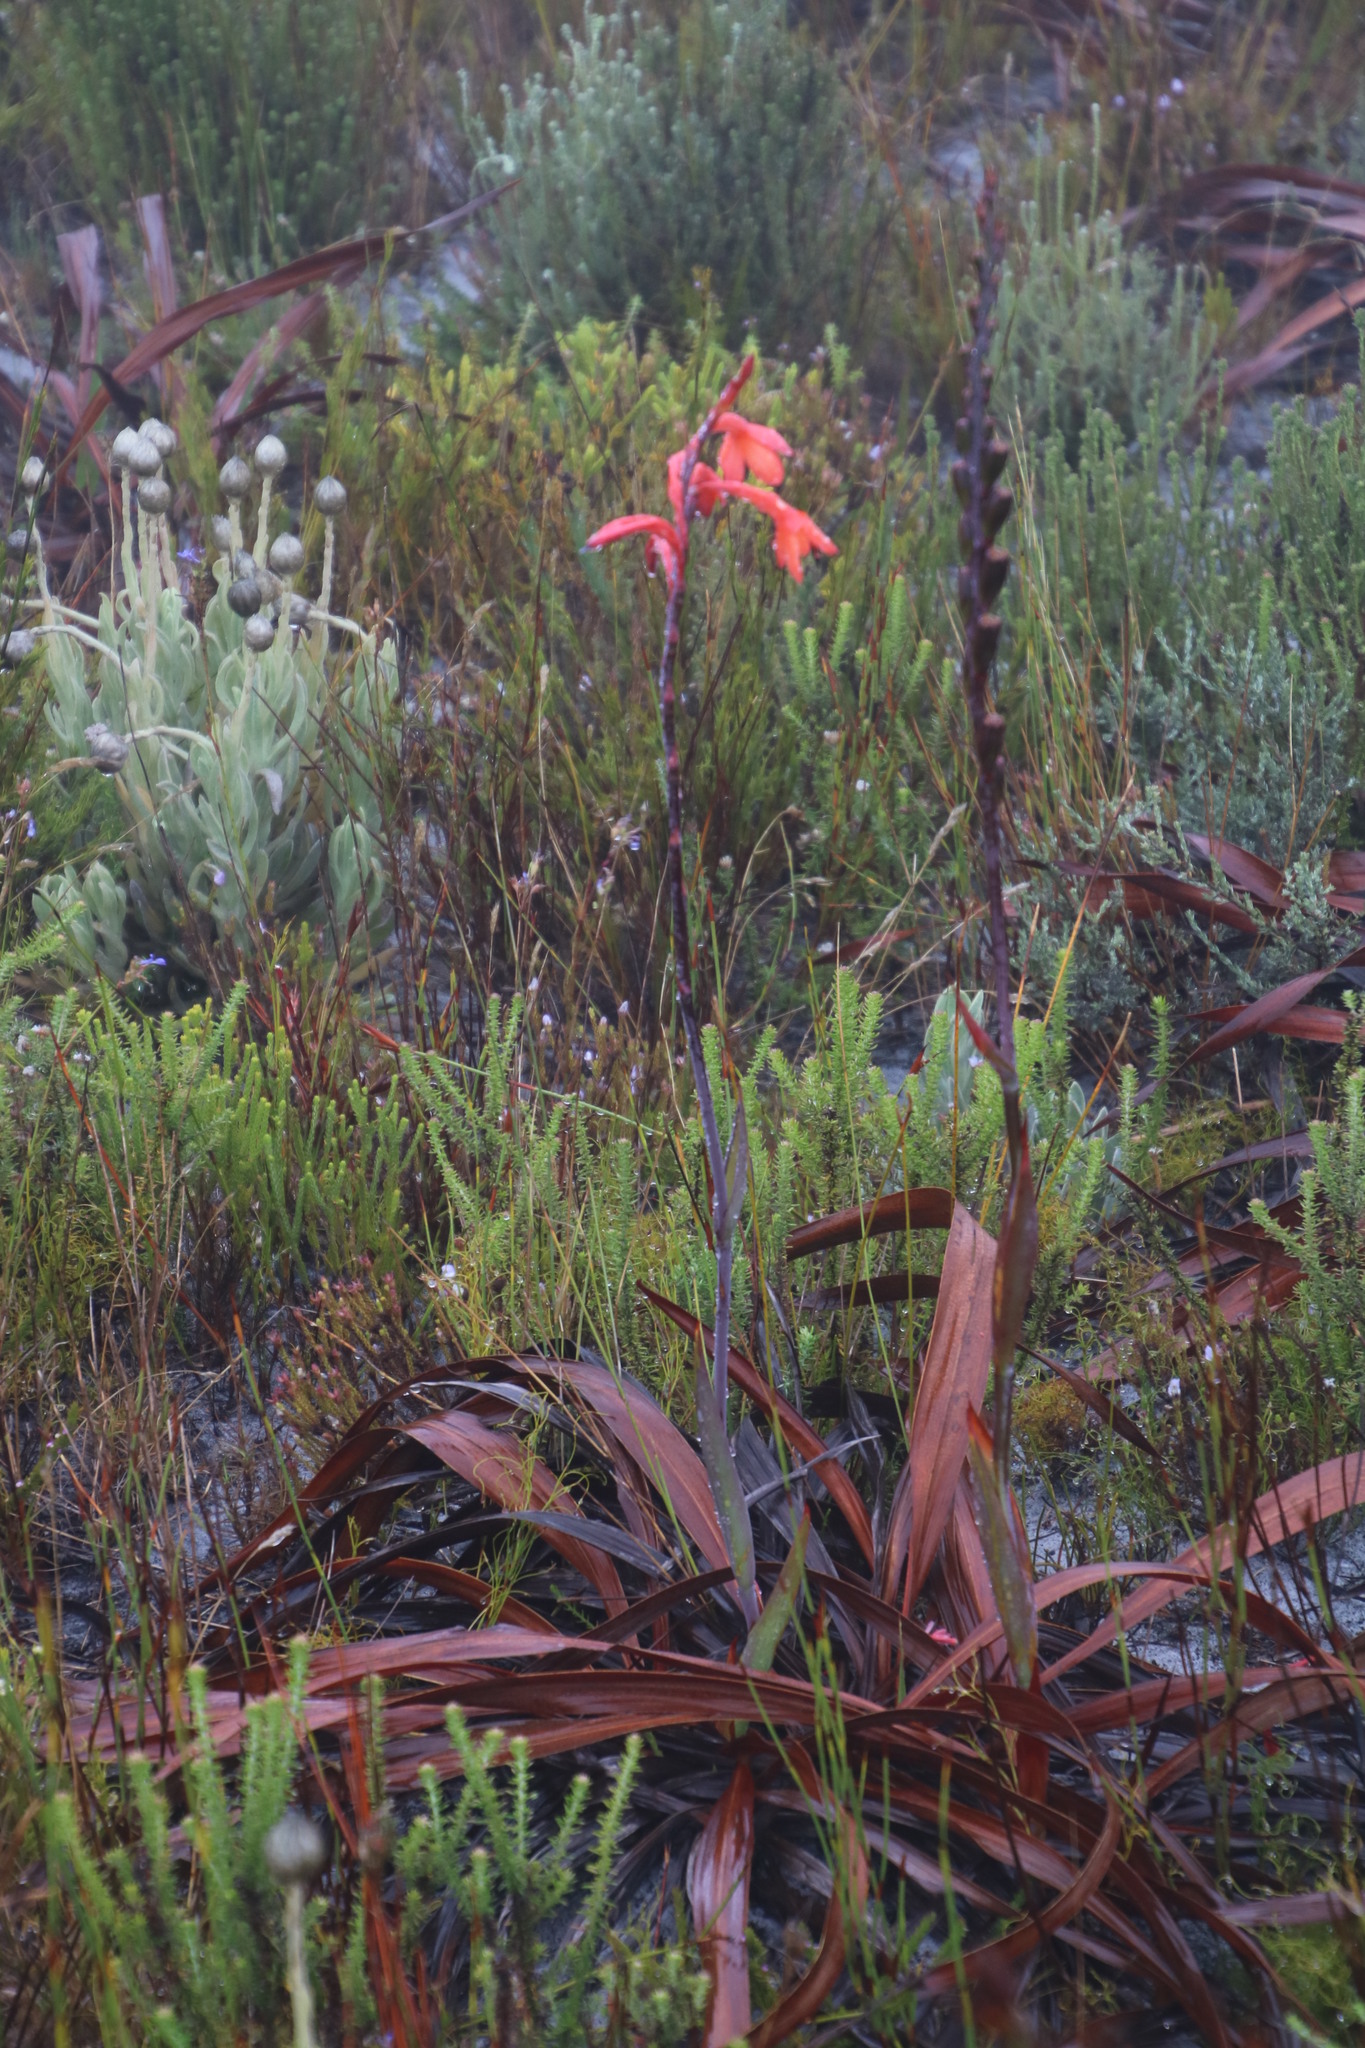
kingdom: Plantae
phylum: Tracheophyta
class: Liliopsida
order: Asparagales
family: Iridaceae
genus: Watsonia
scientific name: Watsonia tabularis
